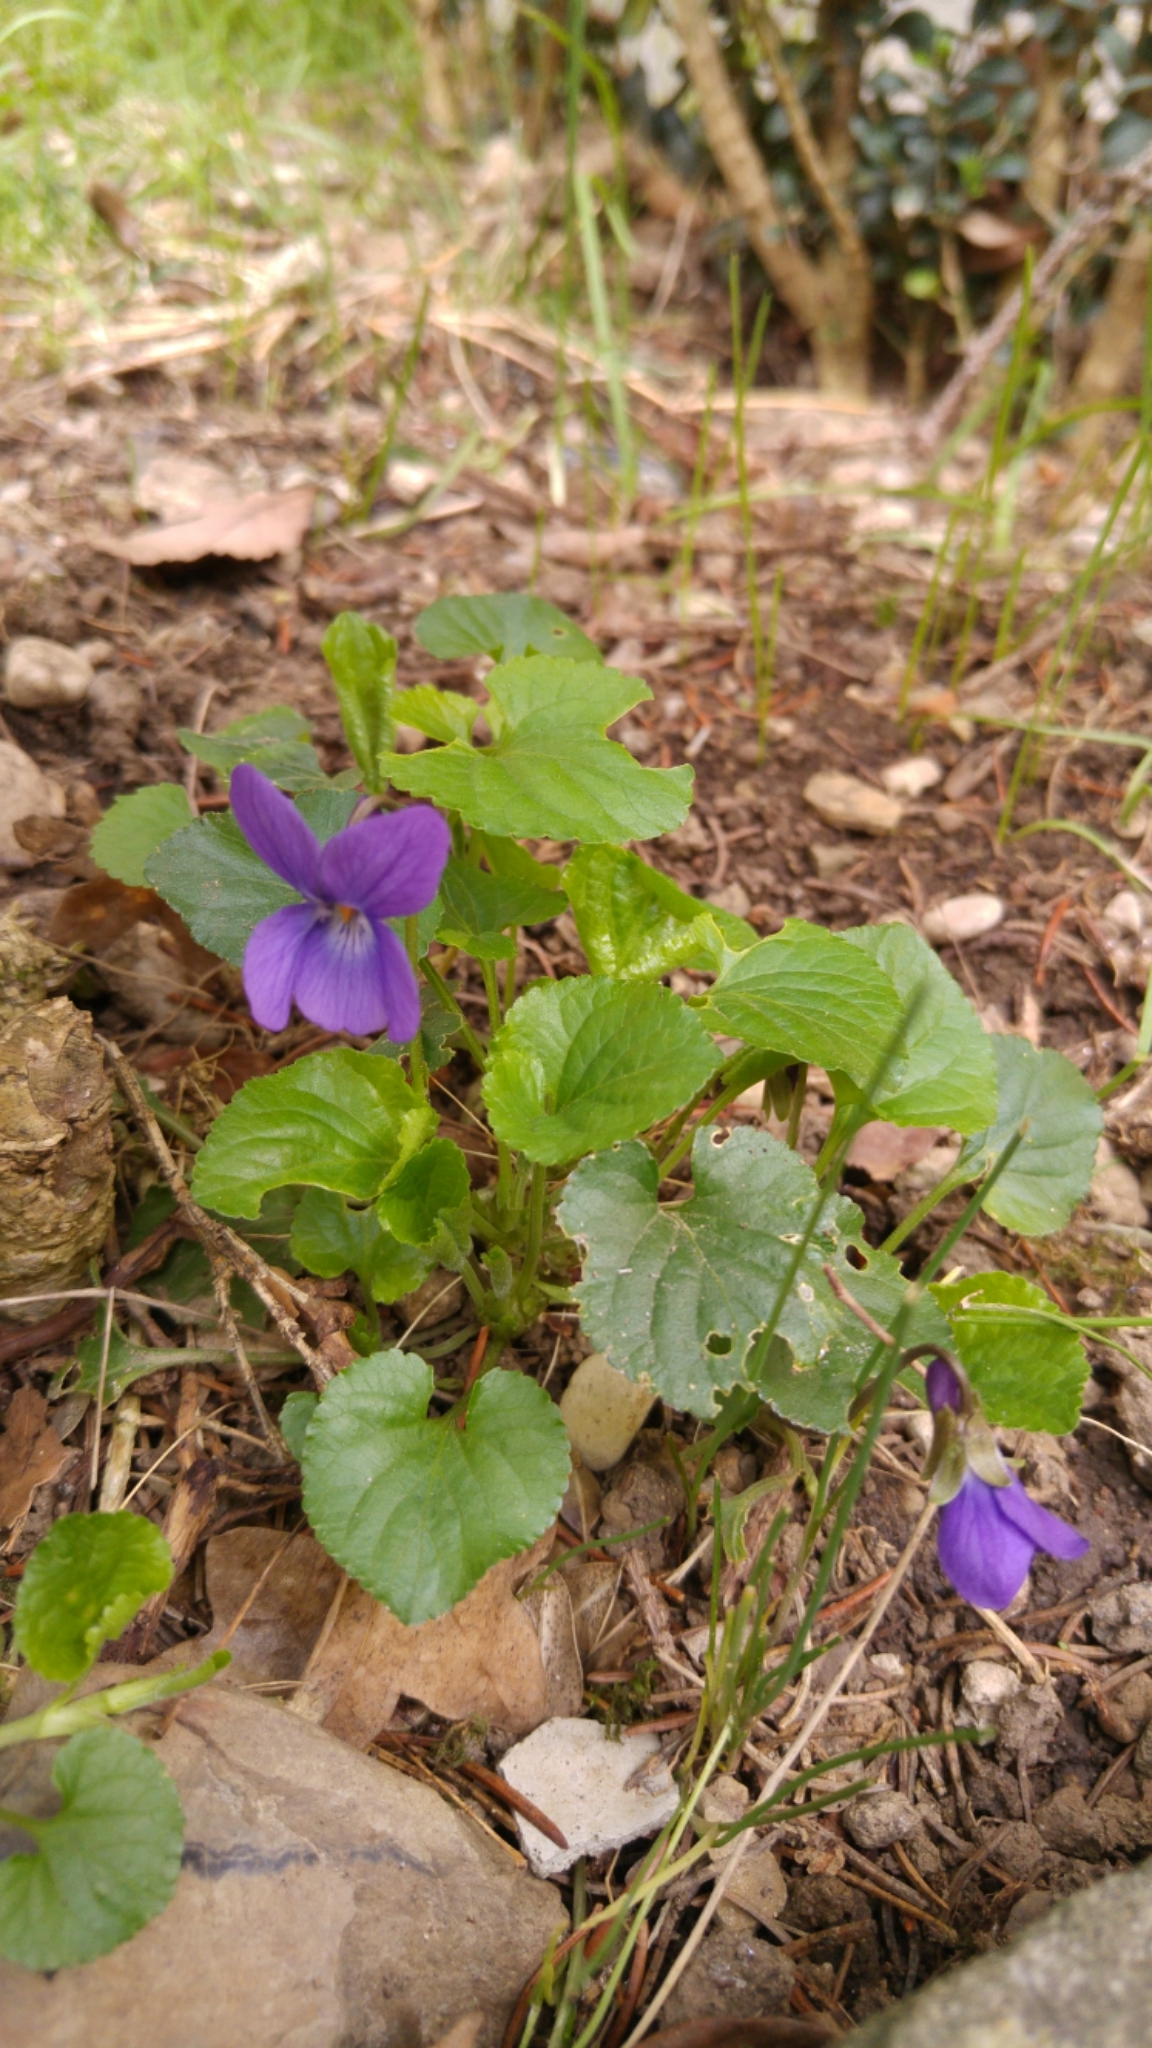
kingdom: Plantae
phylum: Tracheophyta
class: Magnoliopsida
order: Malpighiales
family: Violaceae
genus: Viola
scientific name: Viola odorata
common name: Sweet violet
